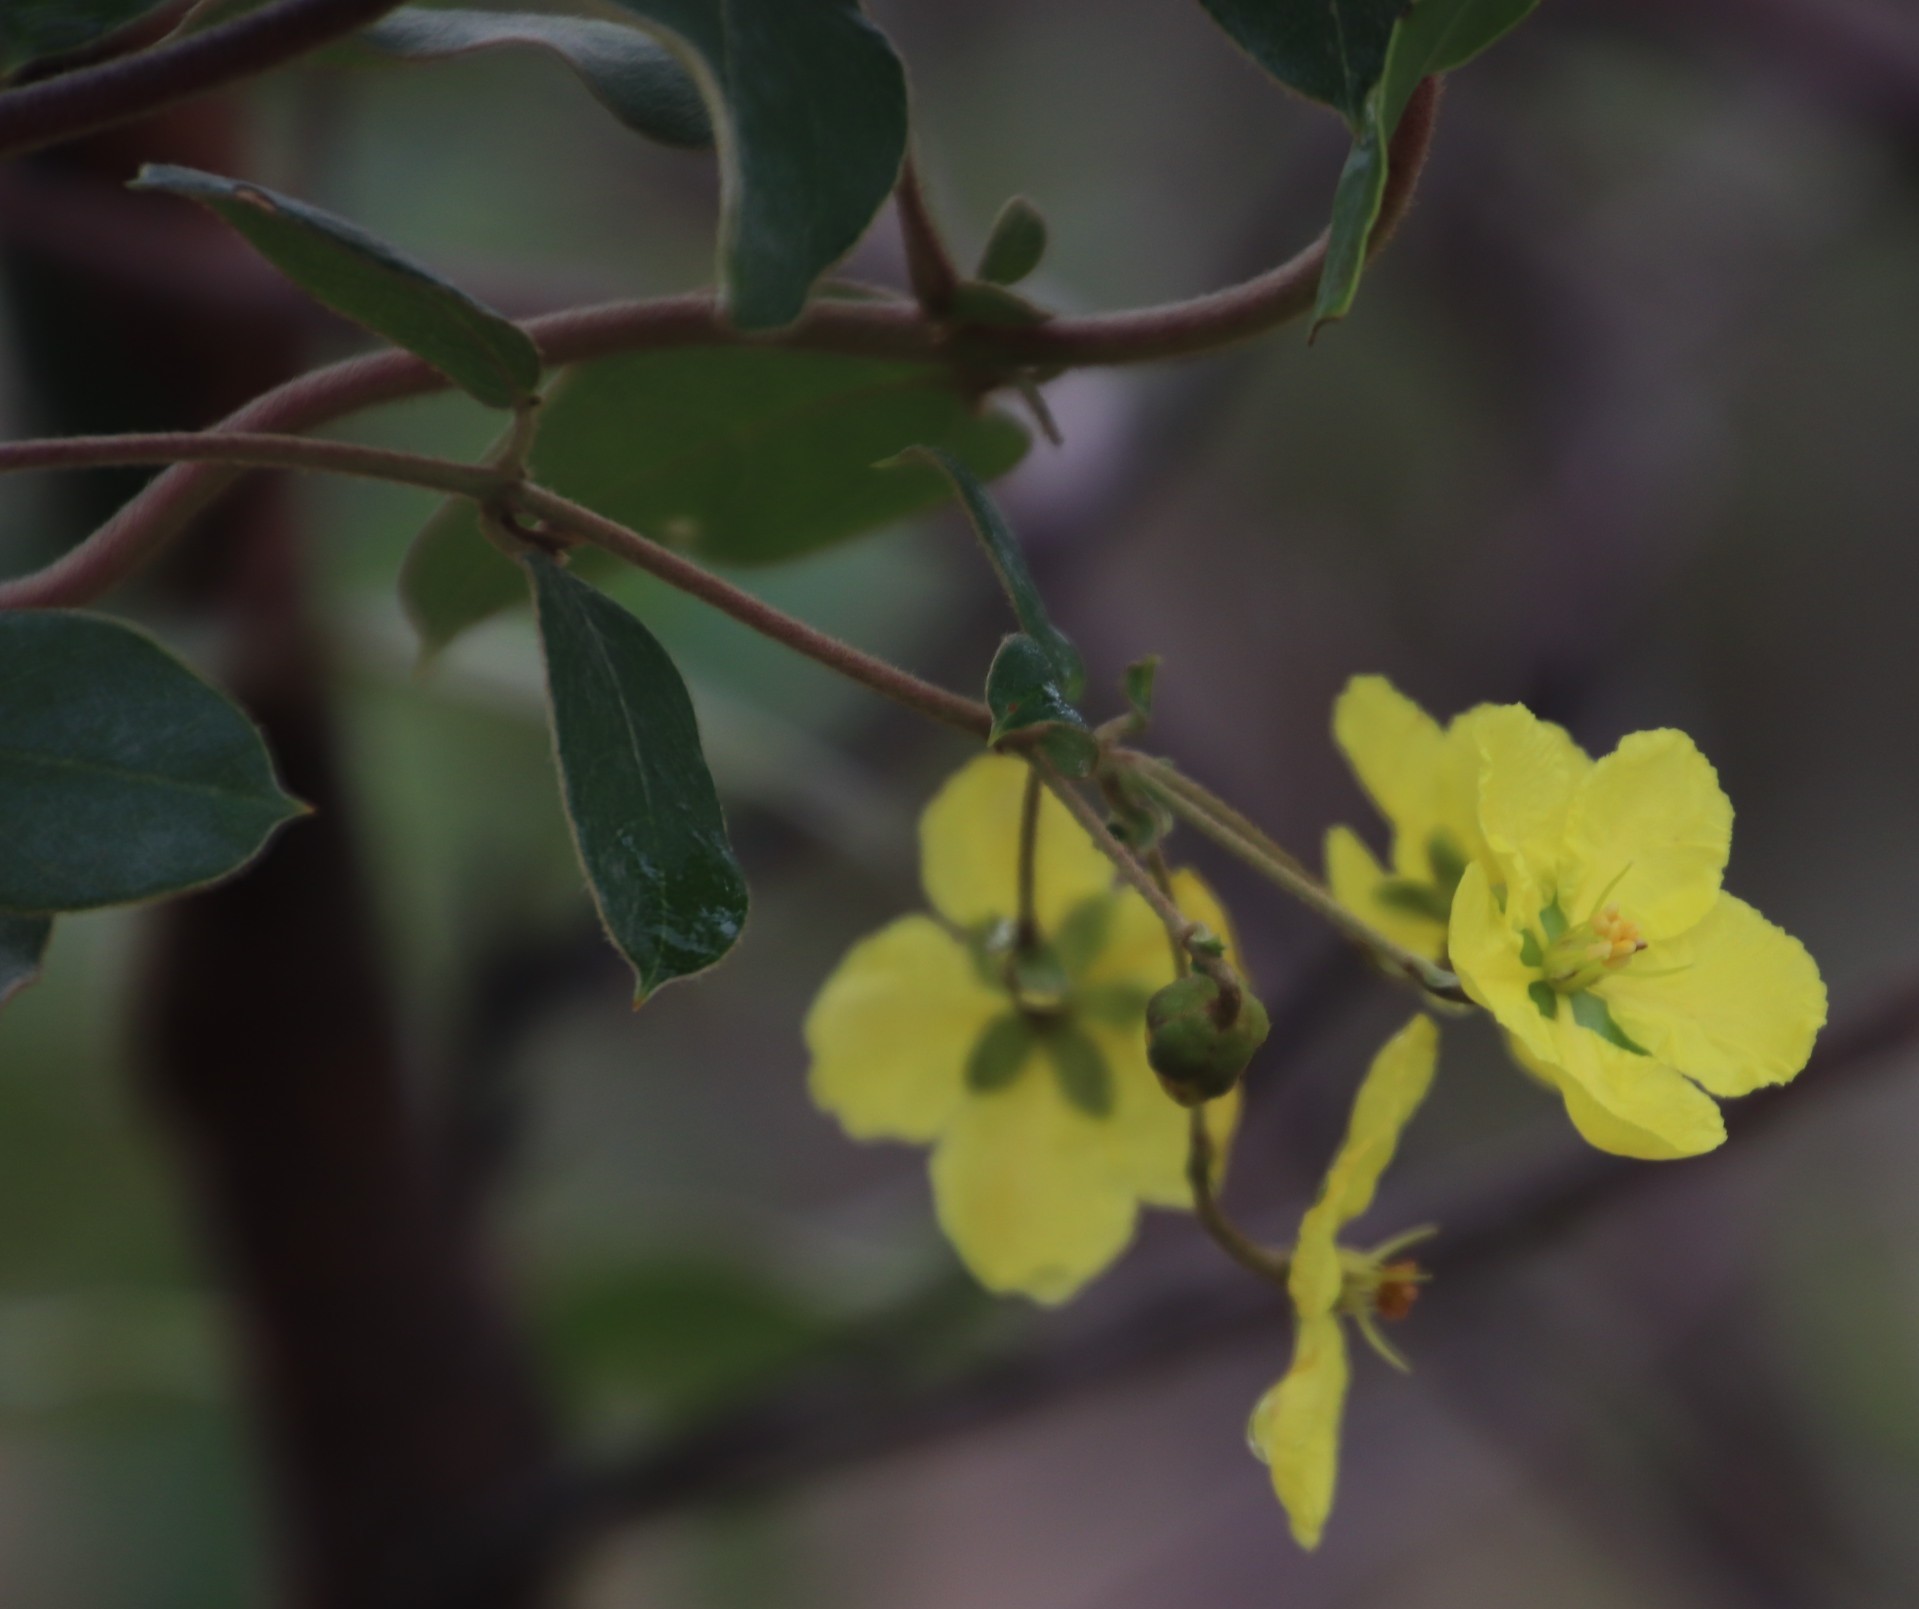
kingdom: Plantae
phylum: Tracheophyta
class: Magnoliopsida
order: Malpighiales
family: Malpighiaceae
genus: Sphedamnocarpus
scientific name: Sphedamnocarpus pruriens
